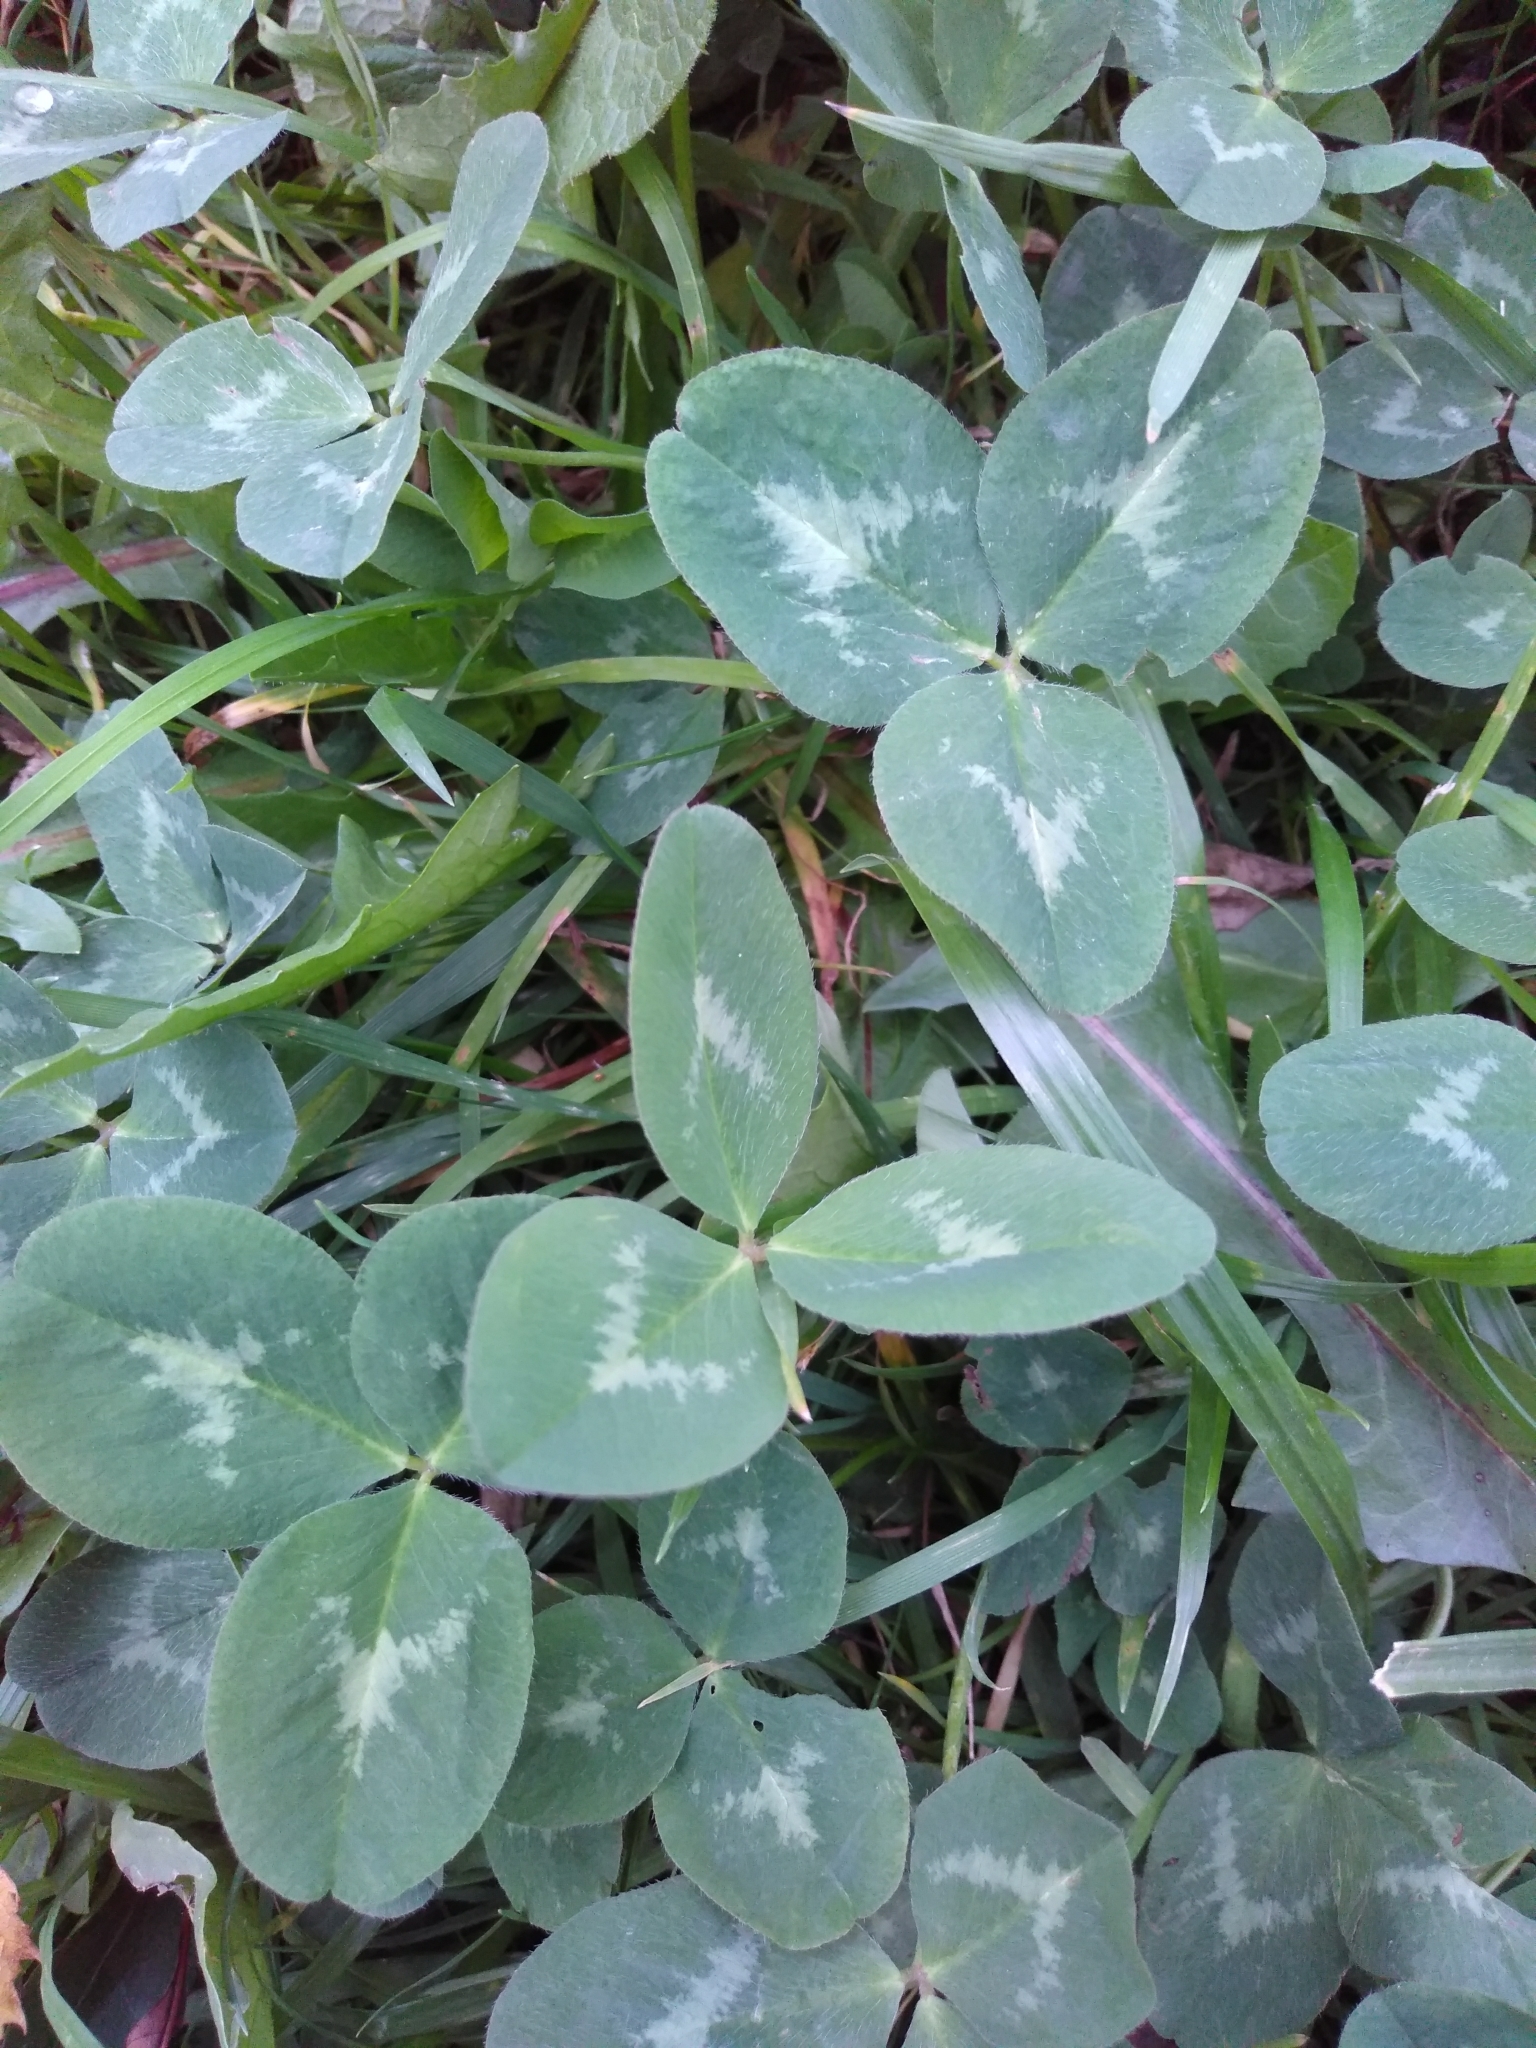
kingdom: Plantae
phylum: Tracheophyta
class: Magnoliopsida
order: Fabales
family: Fabaceae
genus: Trifolium
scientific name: Trifolium pratense
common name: Red clover
